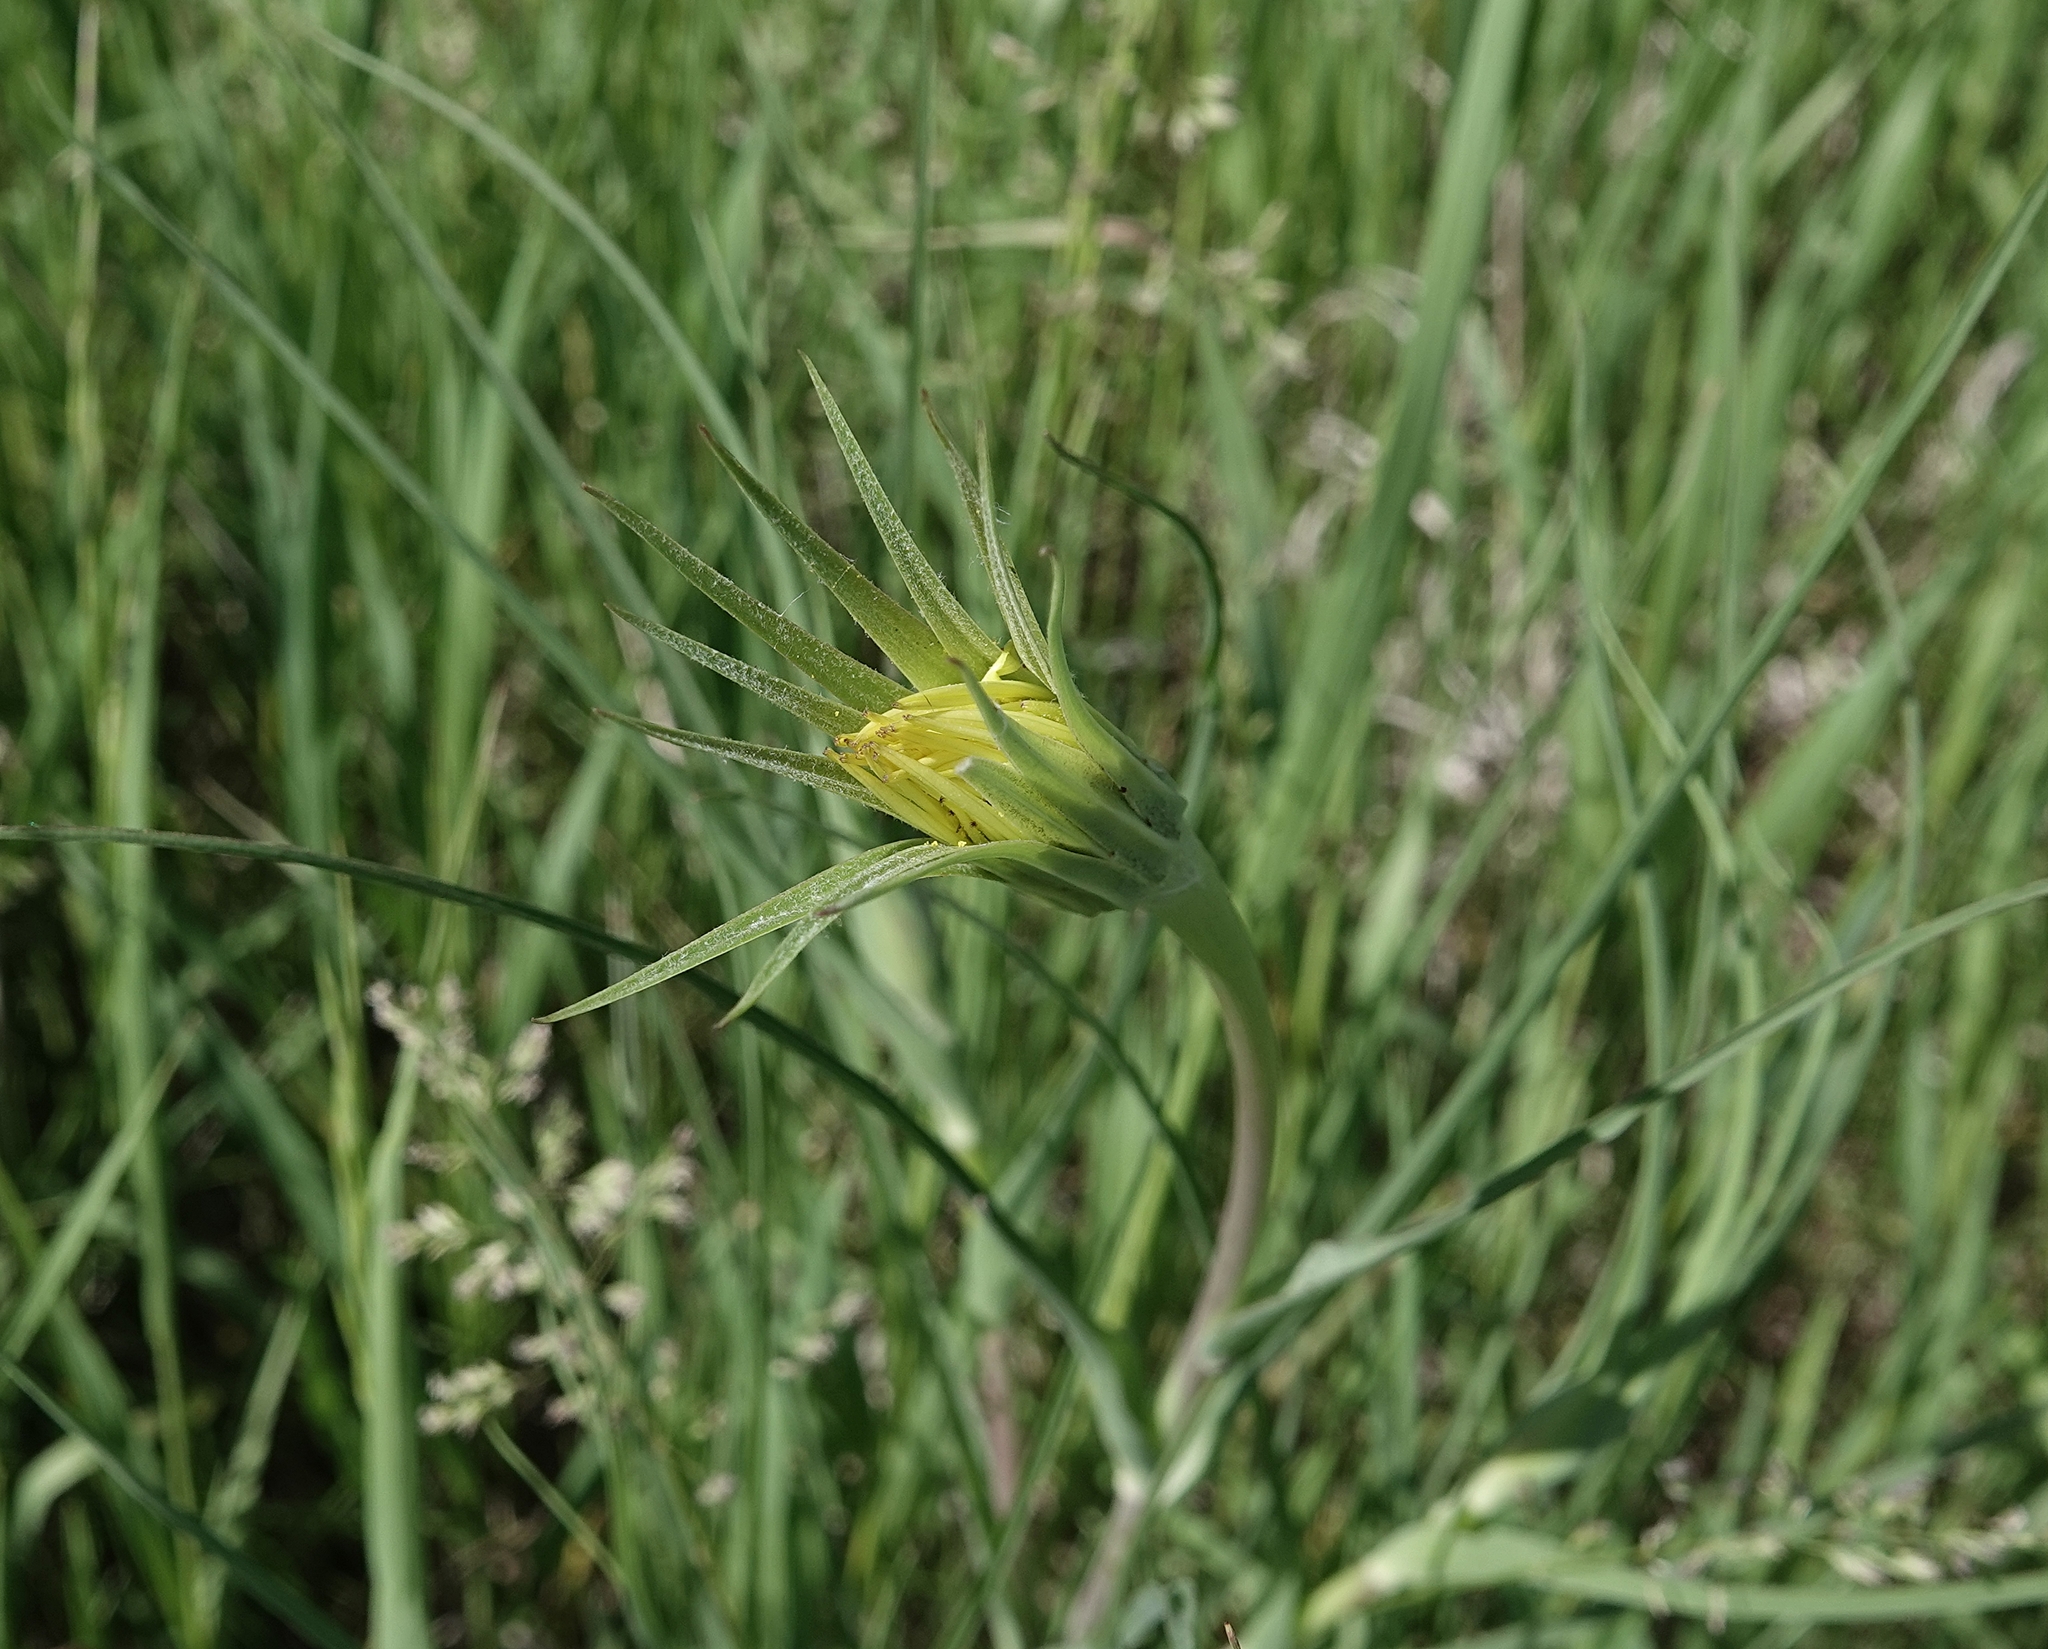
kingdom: Plantae
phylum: Tracheophyta
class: Magnoliopsida
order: Asterales
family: Asteraceae
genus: Tragopogon
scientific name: Tragopogon dubius
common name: Yellow salsify
